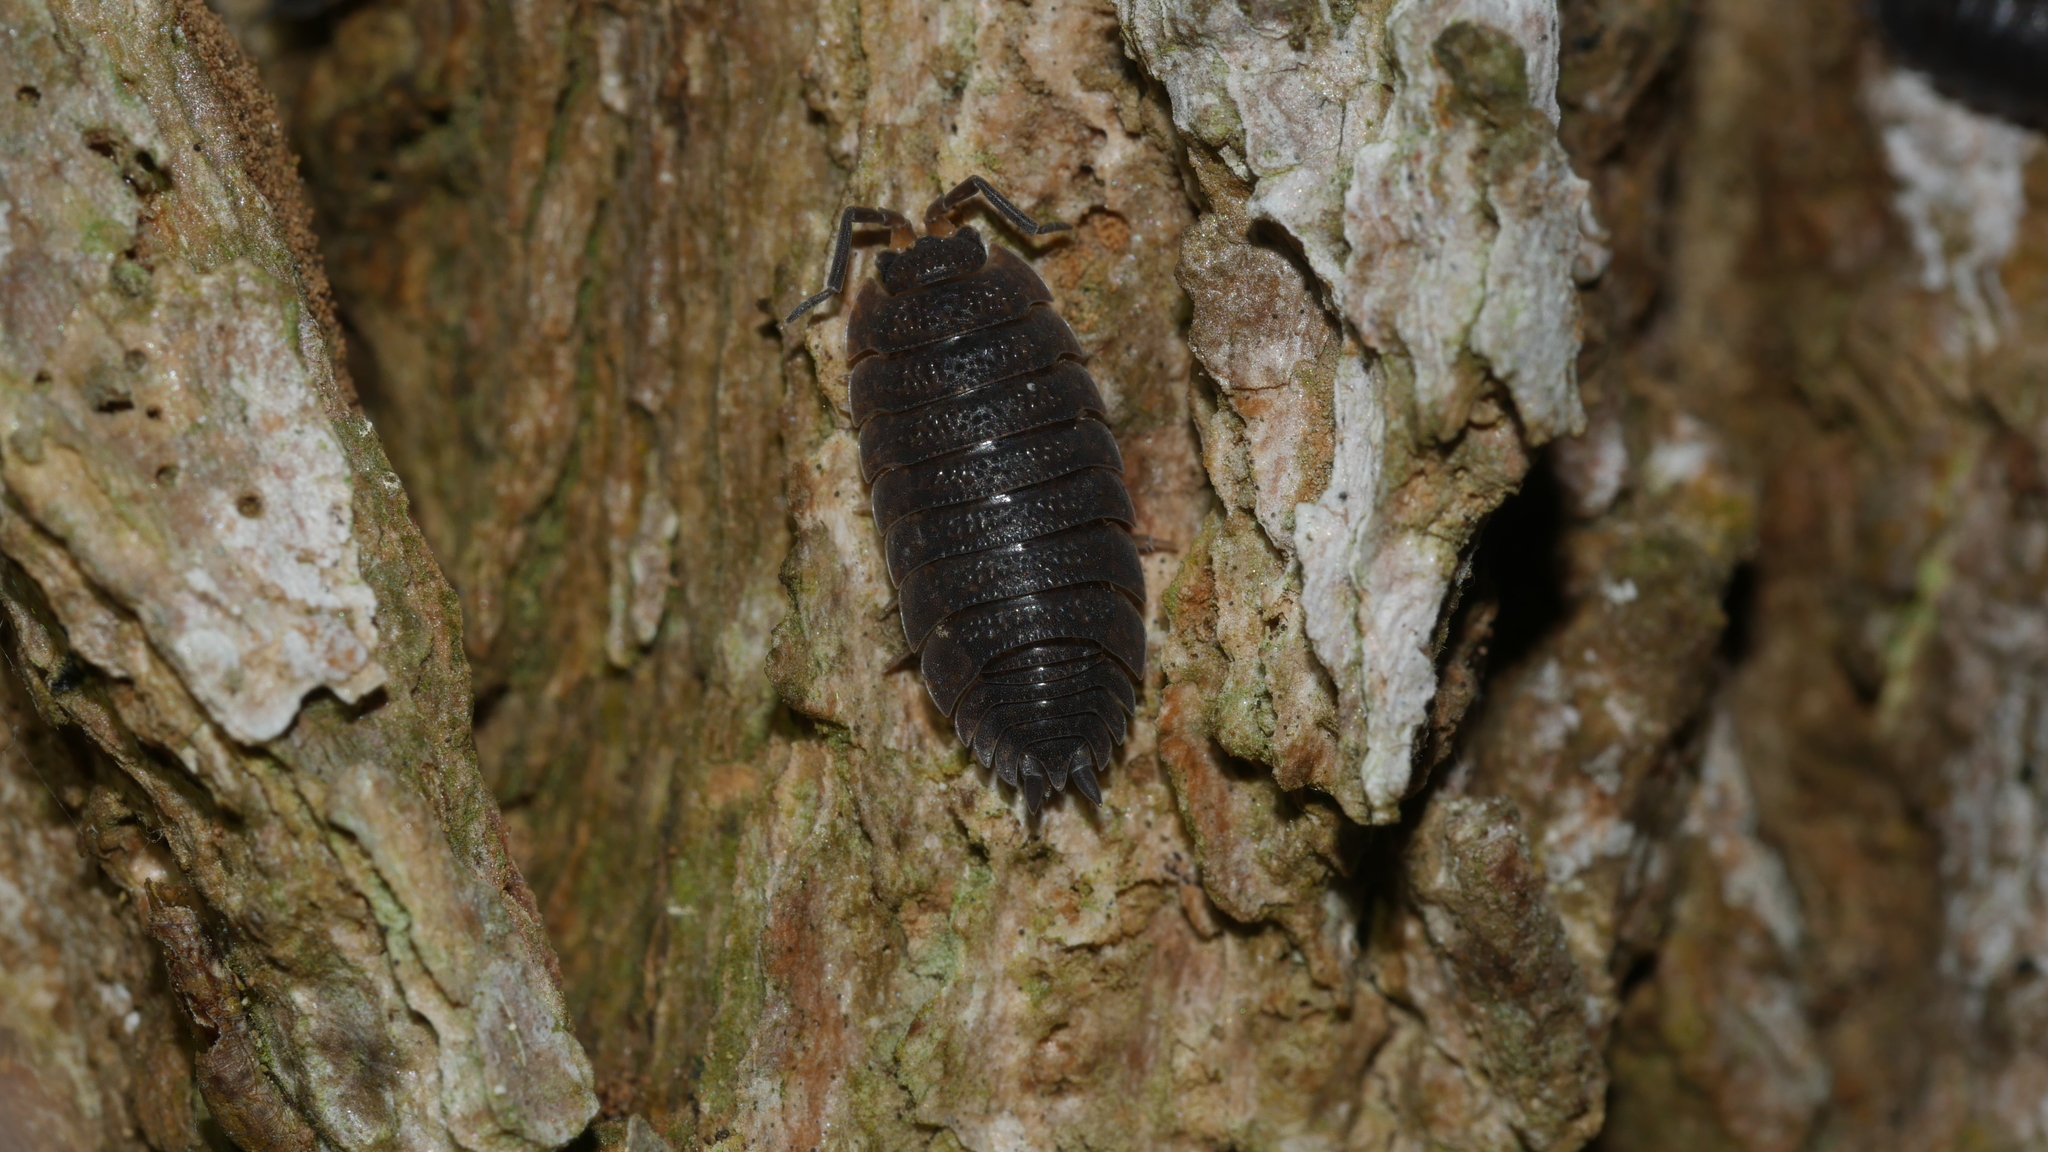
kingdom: Animalia
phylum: Arthropoda
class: Malacostraca
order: Isopoda
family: Porcellionidae
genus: Porcellio
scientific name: Porcellio scaber
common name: Common rough woodlouse
